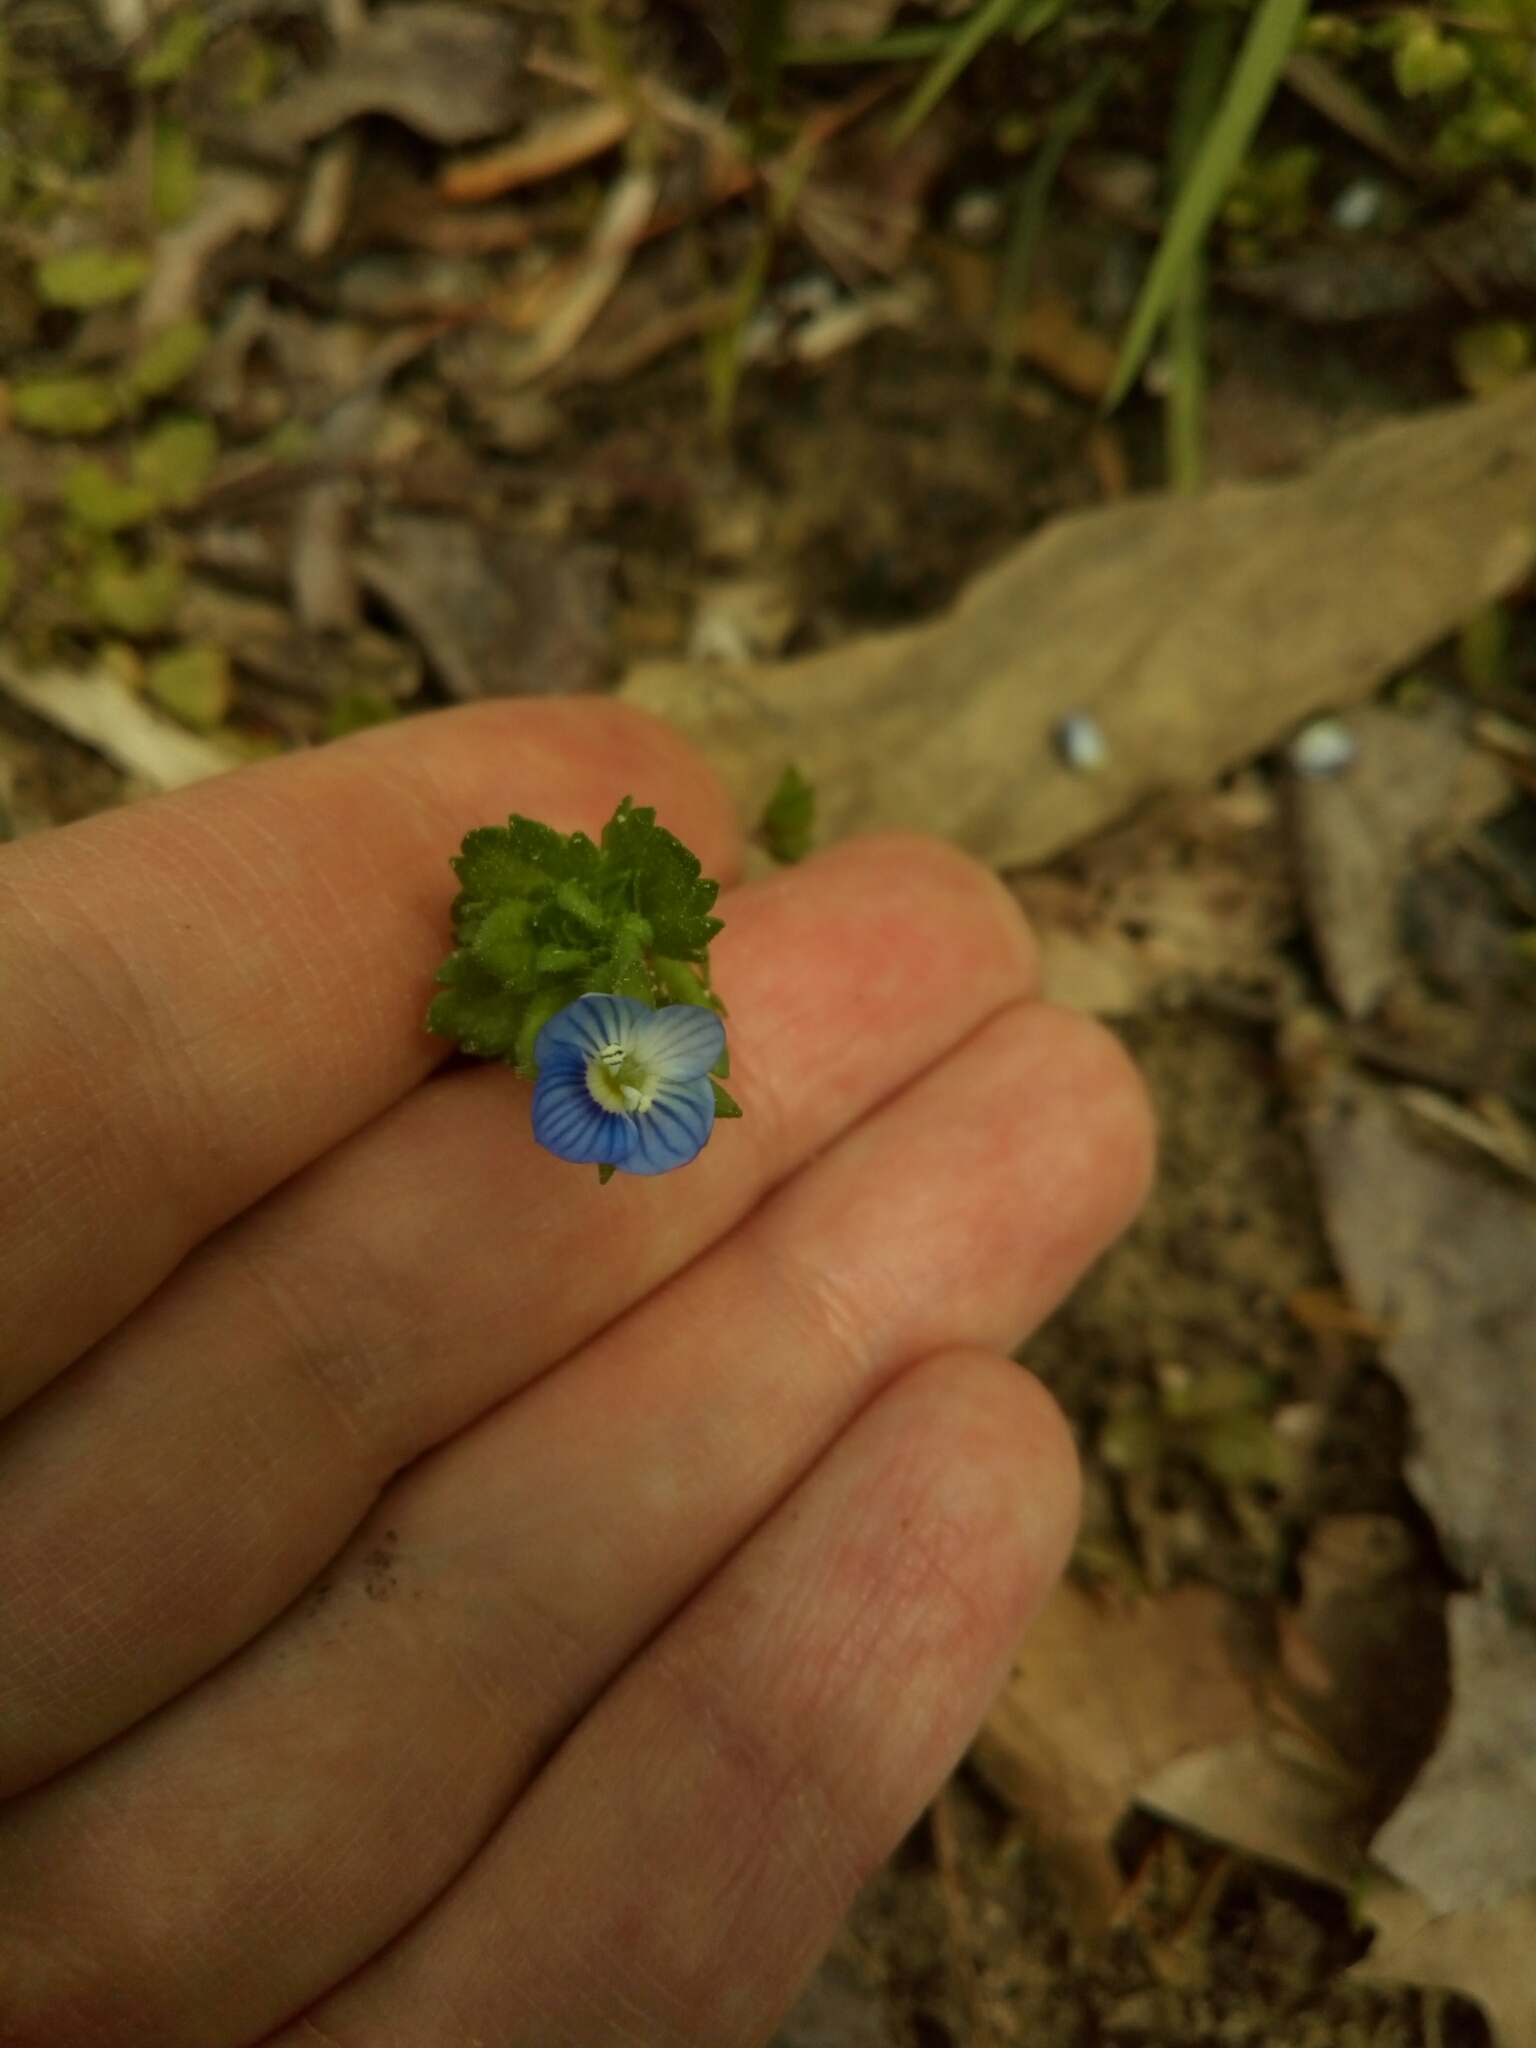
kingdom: Plantae
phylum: Tracheophyta
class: Magnoliopsida
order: Lamiales
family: Plantaginaceae
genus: Veronica
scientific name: Veronica persica
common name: Common field-speedwell
